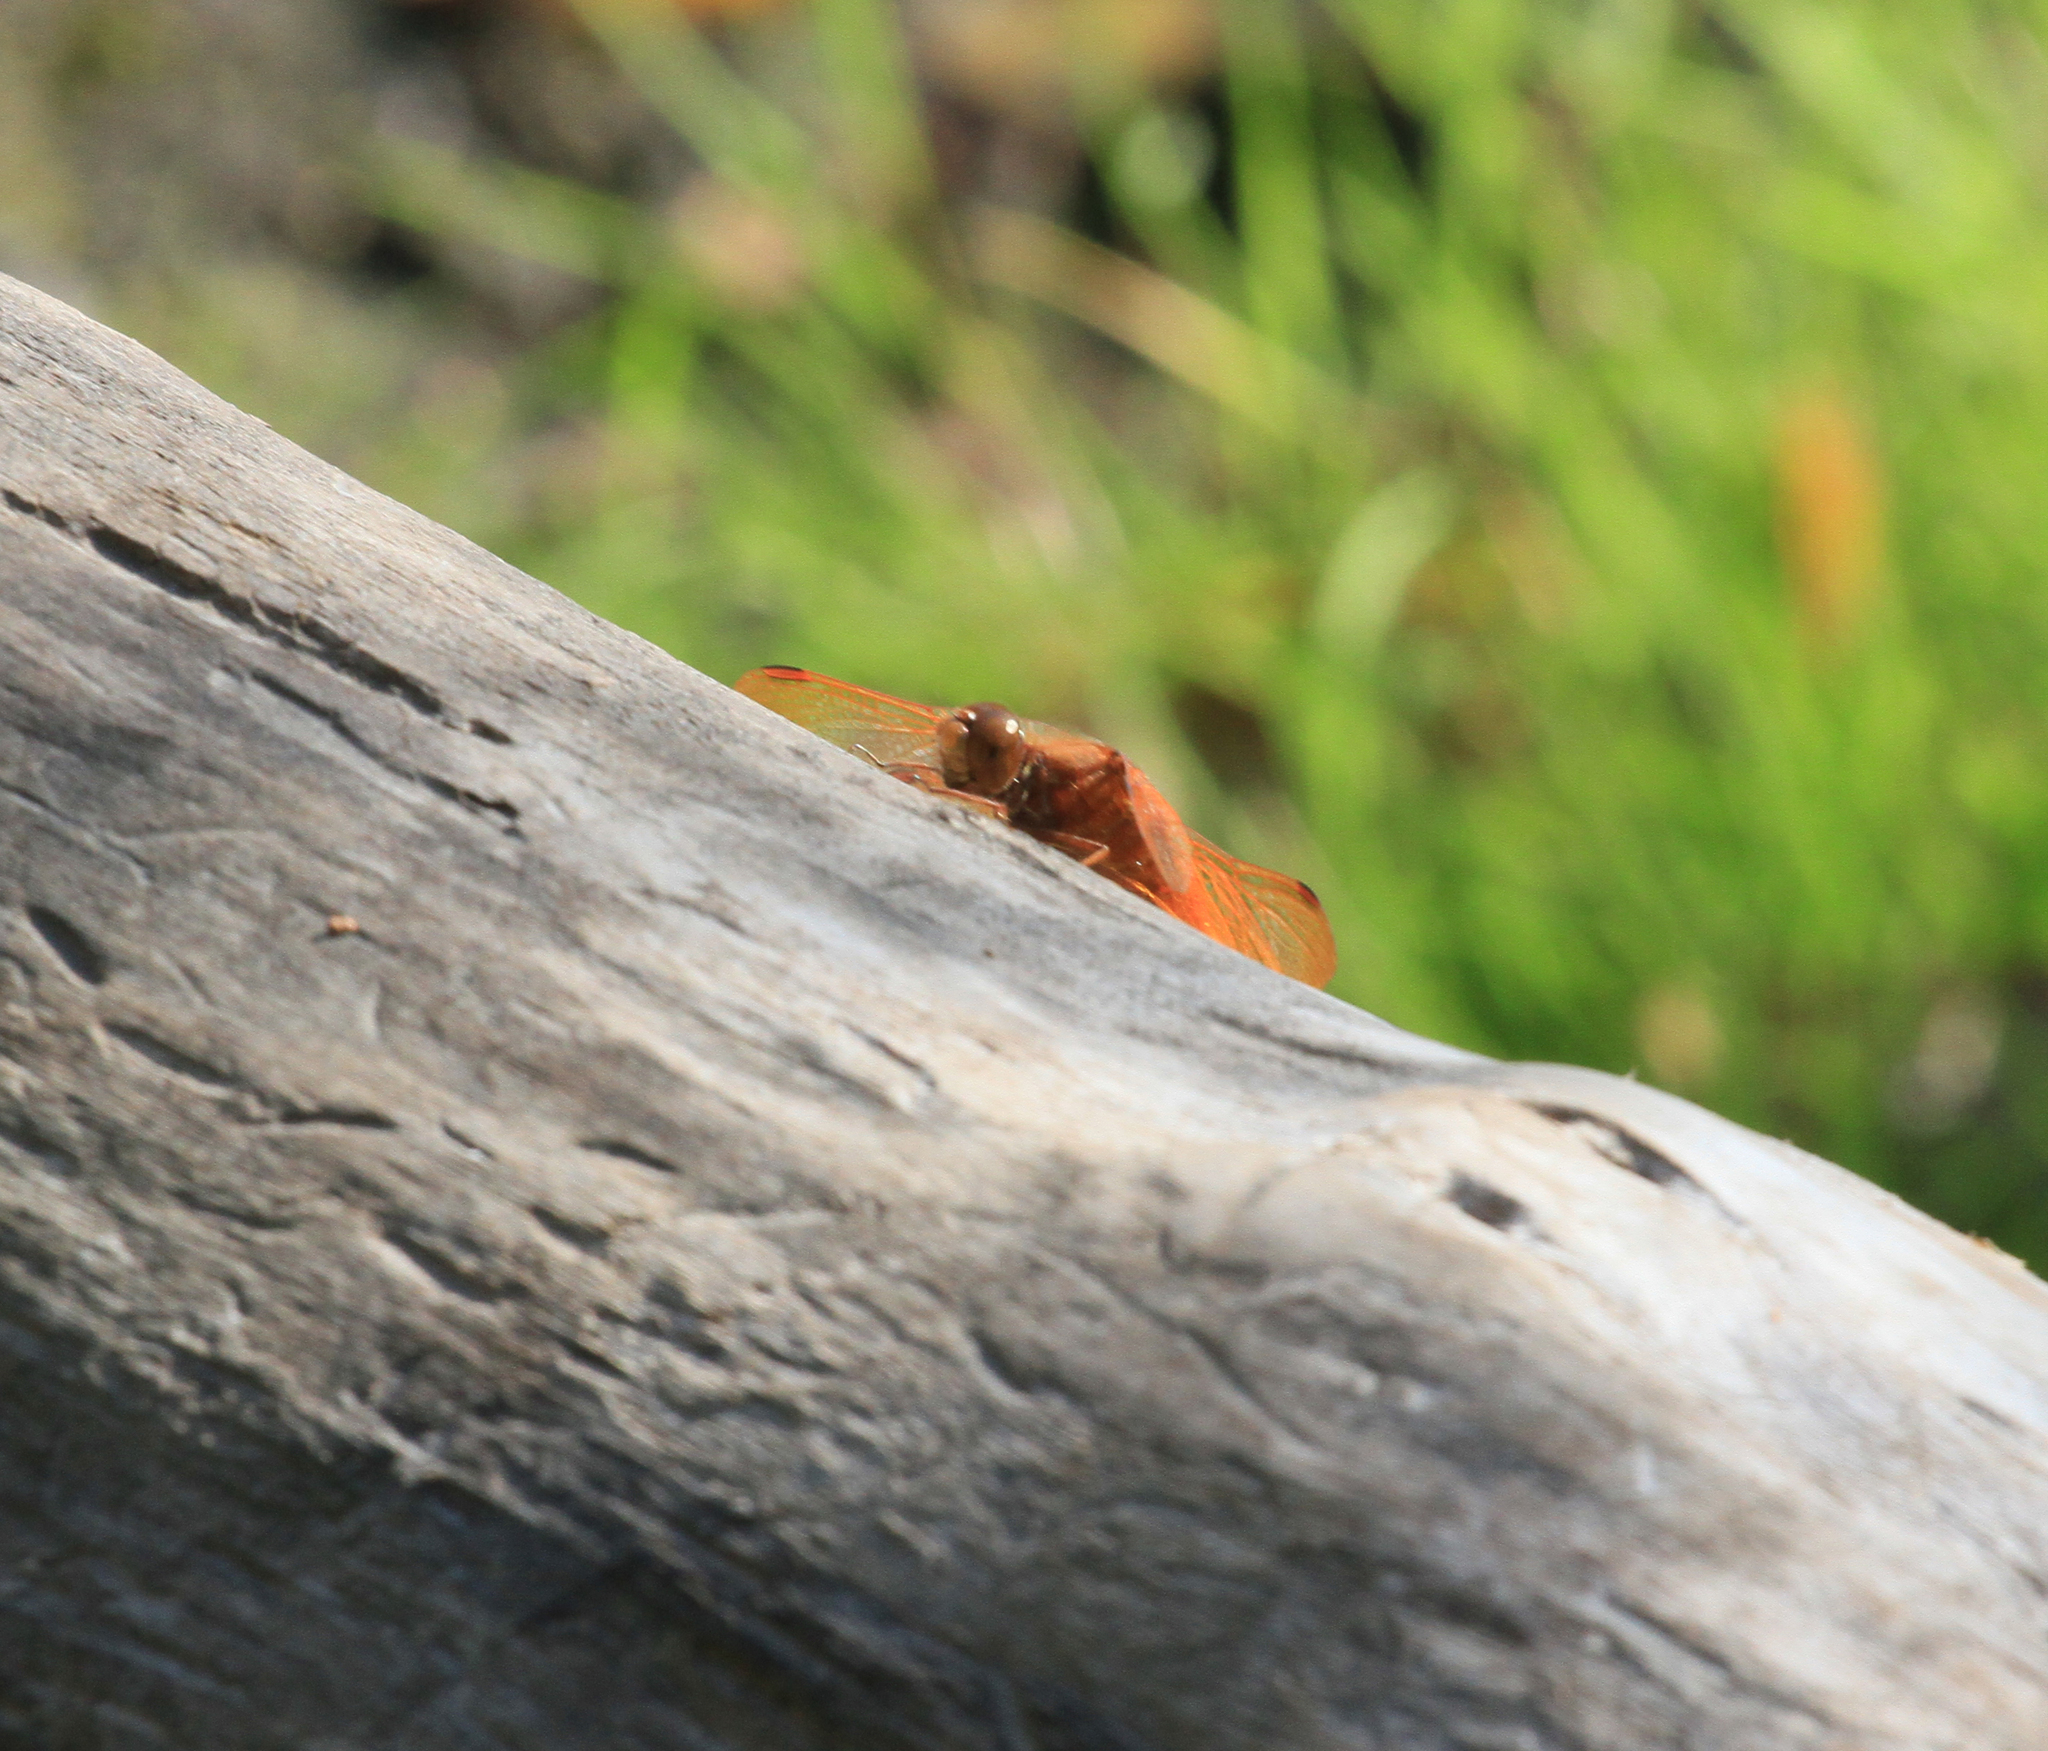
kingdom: Animalia
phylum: Arthropoda
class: Insecta
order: Odonata
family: Libellulidae
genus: Sympetrum
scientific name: Sympetrum croceolum
